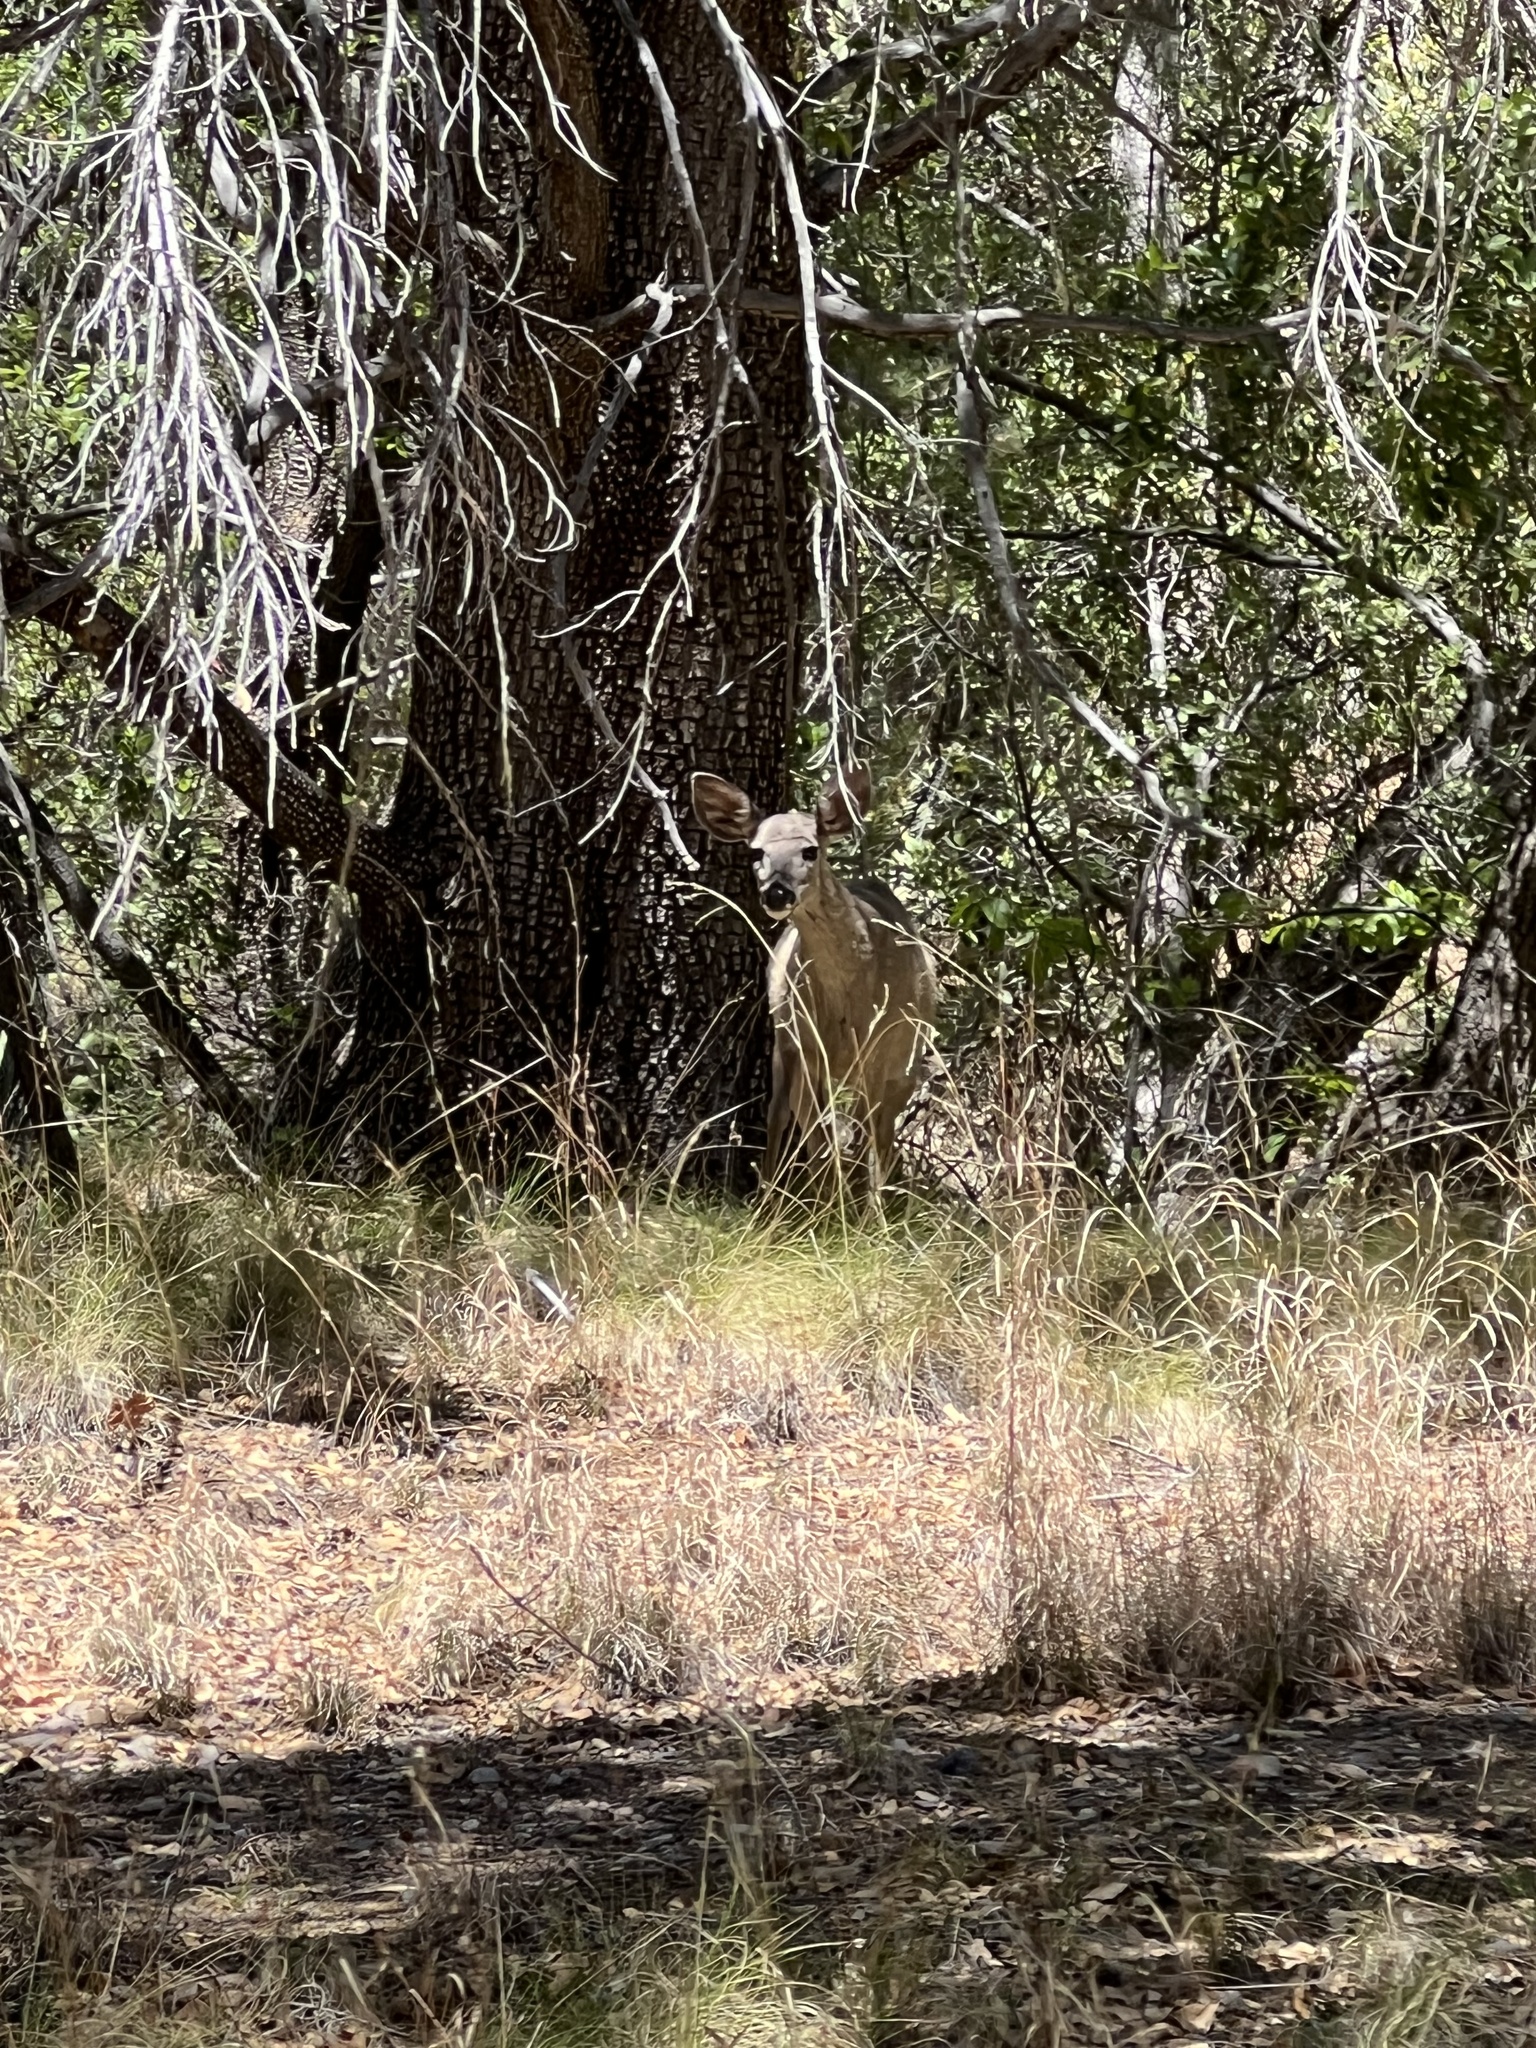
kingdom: Animalia
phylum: Chordata
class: Mammalia
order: Artiodactyla
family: Cervidae
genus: Odocoileus
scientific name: Odocoileus virginianus
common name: White-tailed deer
